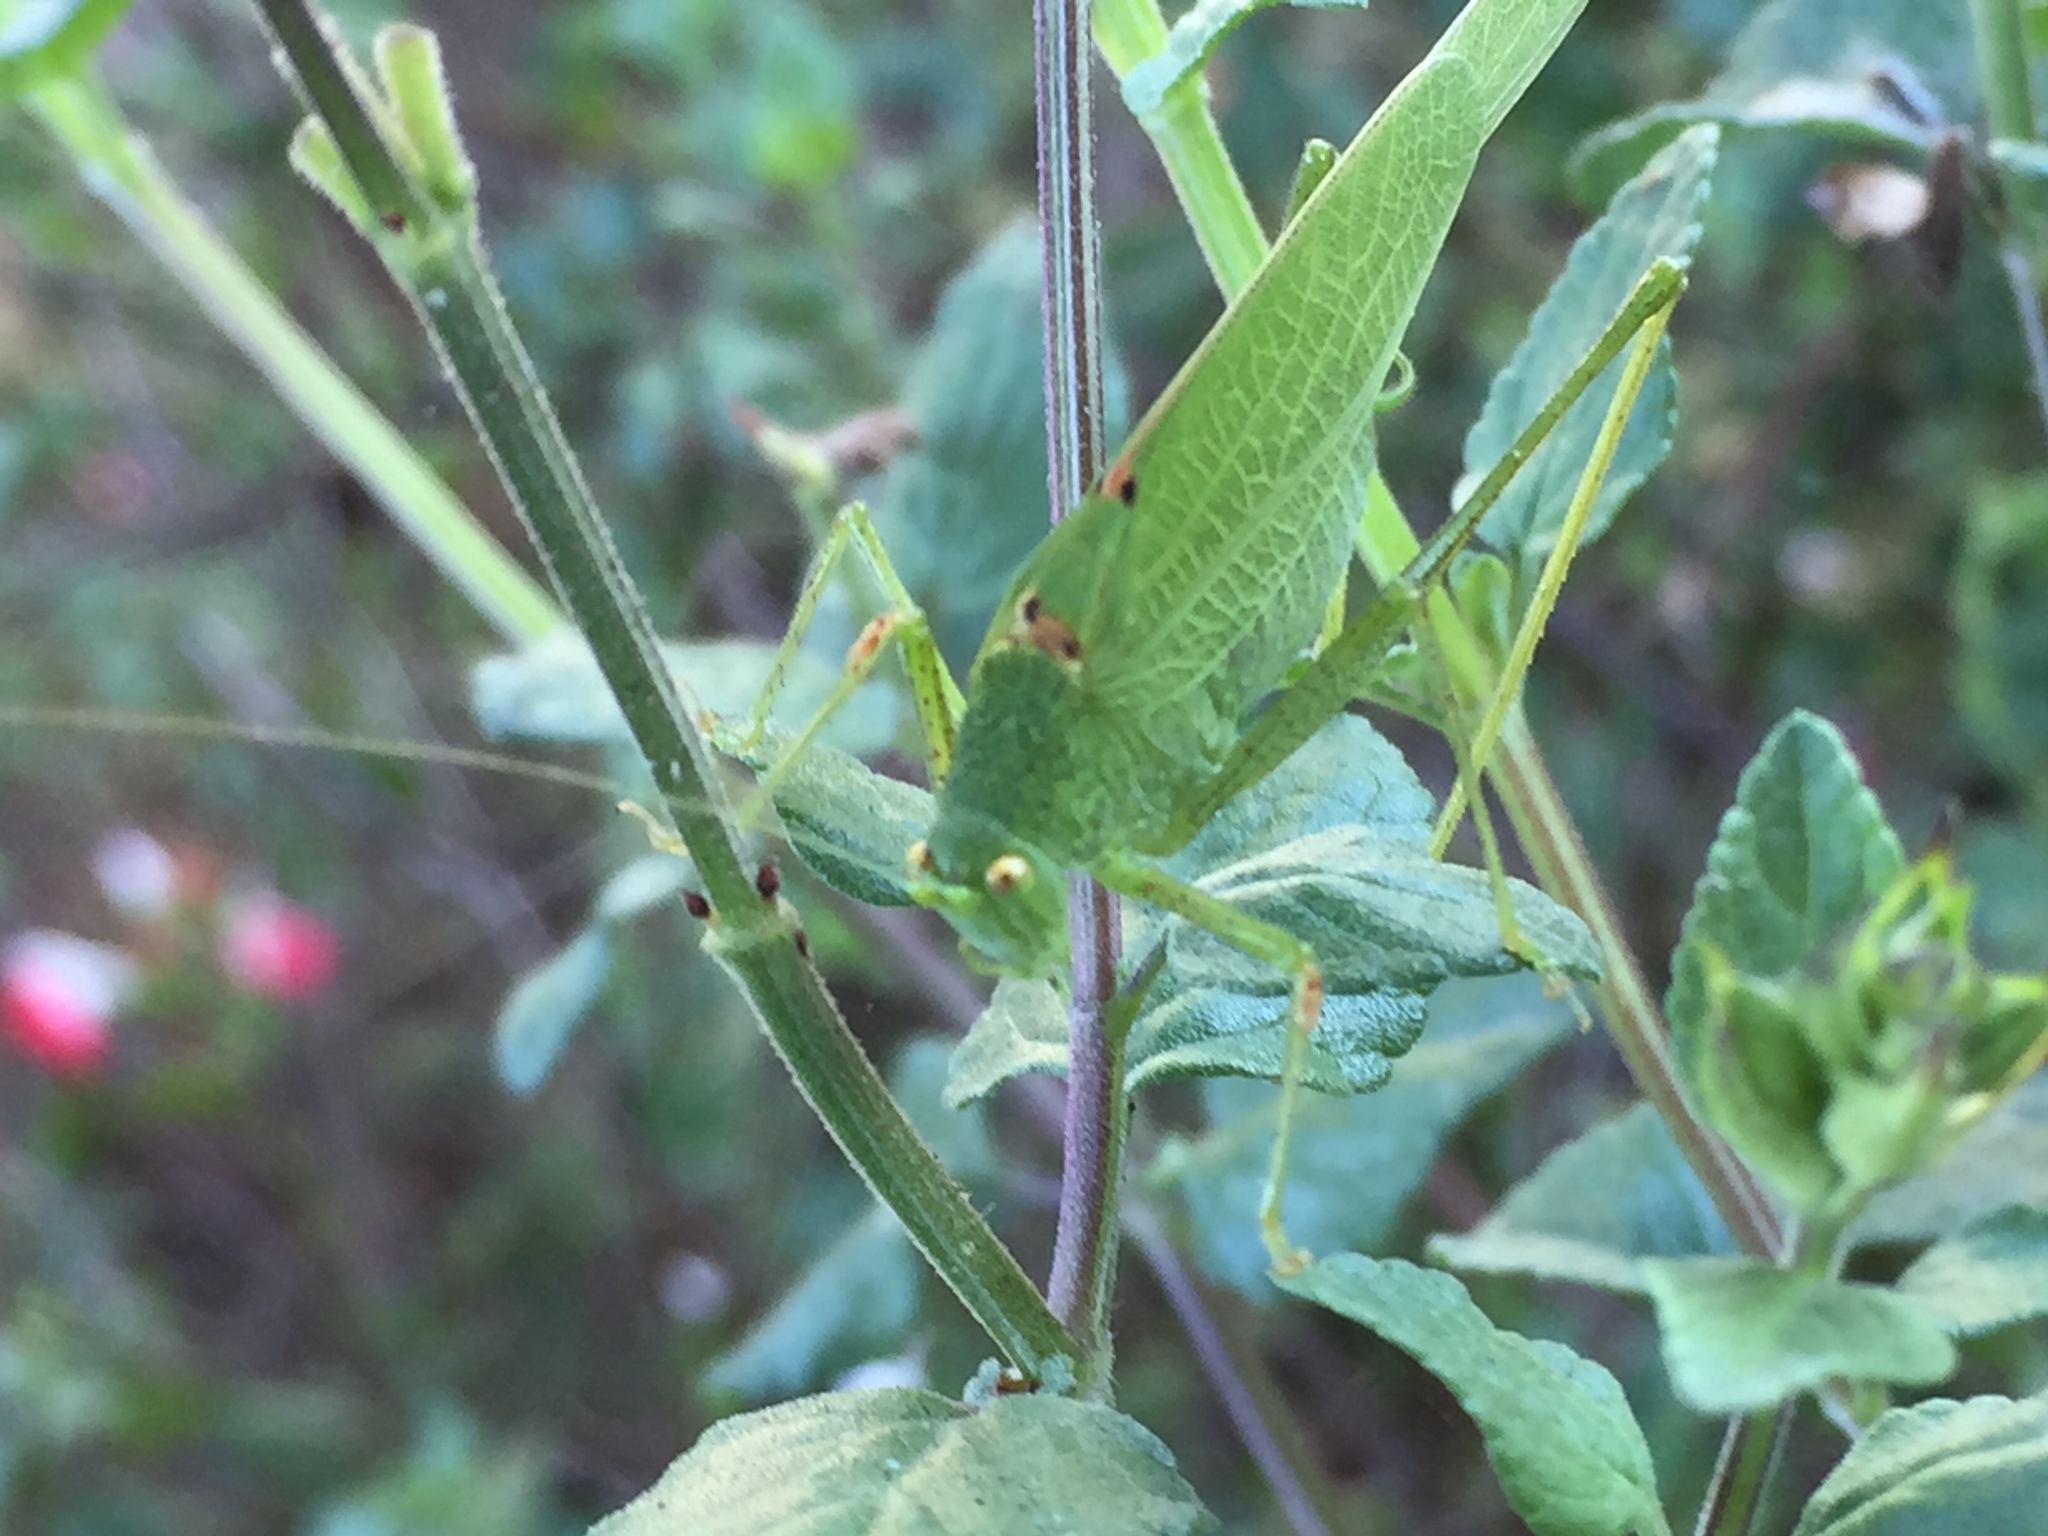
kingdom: Animalia
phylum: Arthropoda
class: Insecta
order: Orthoptera
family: Tettigoniidae
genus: Phaneroptera
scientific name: Phaneroptera nana
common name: Southern sickle bush-cricket
